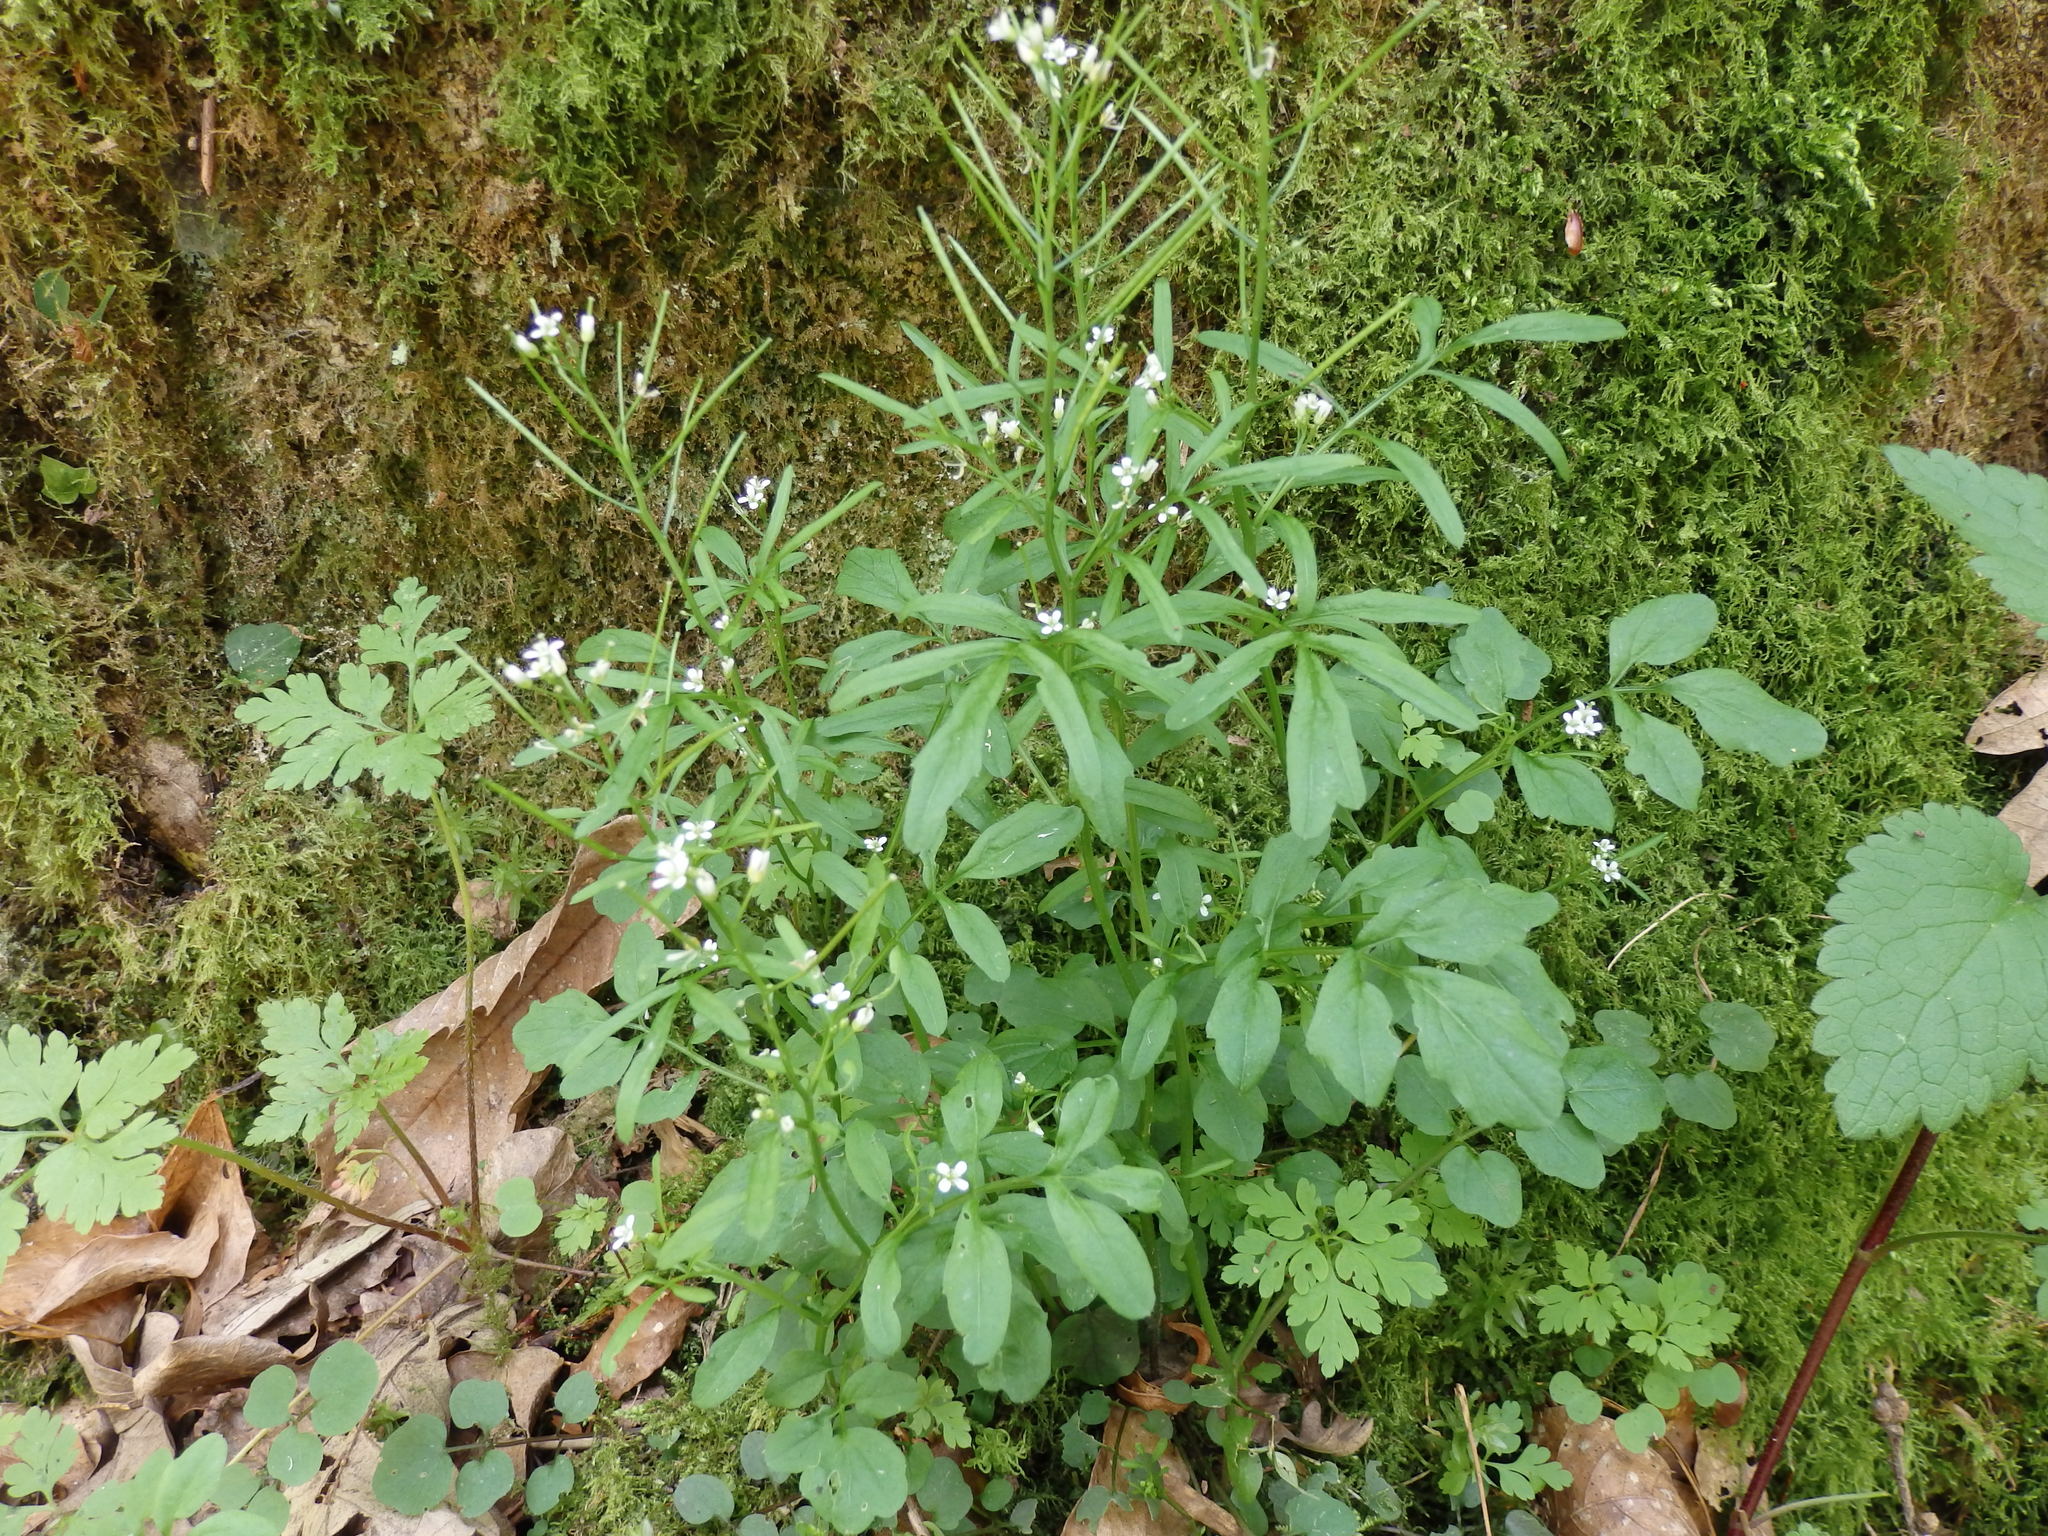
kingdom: Plantae
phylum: Tracheophyta
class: Magnoliopsida
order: Brassicales
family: Brassicaceae
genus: Cardamine
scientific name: Cardamine flexuosa
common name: Woodland bittercress
